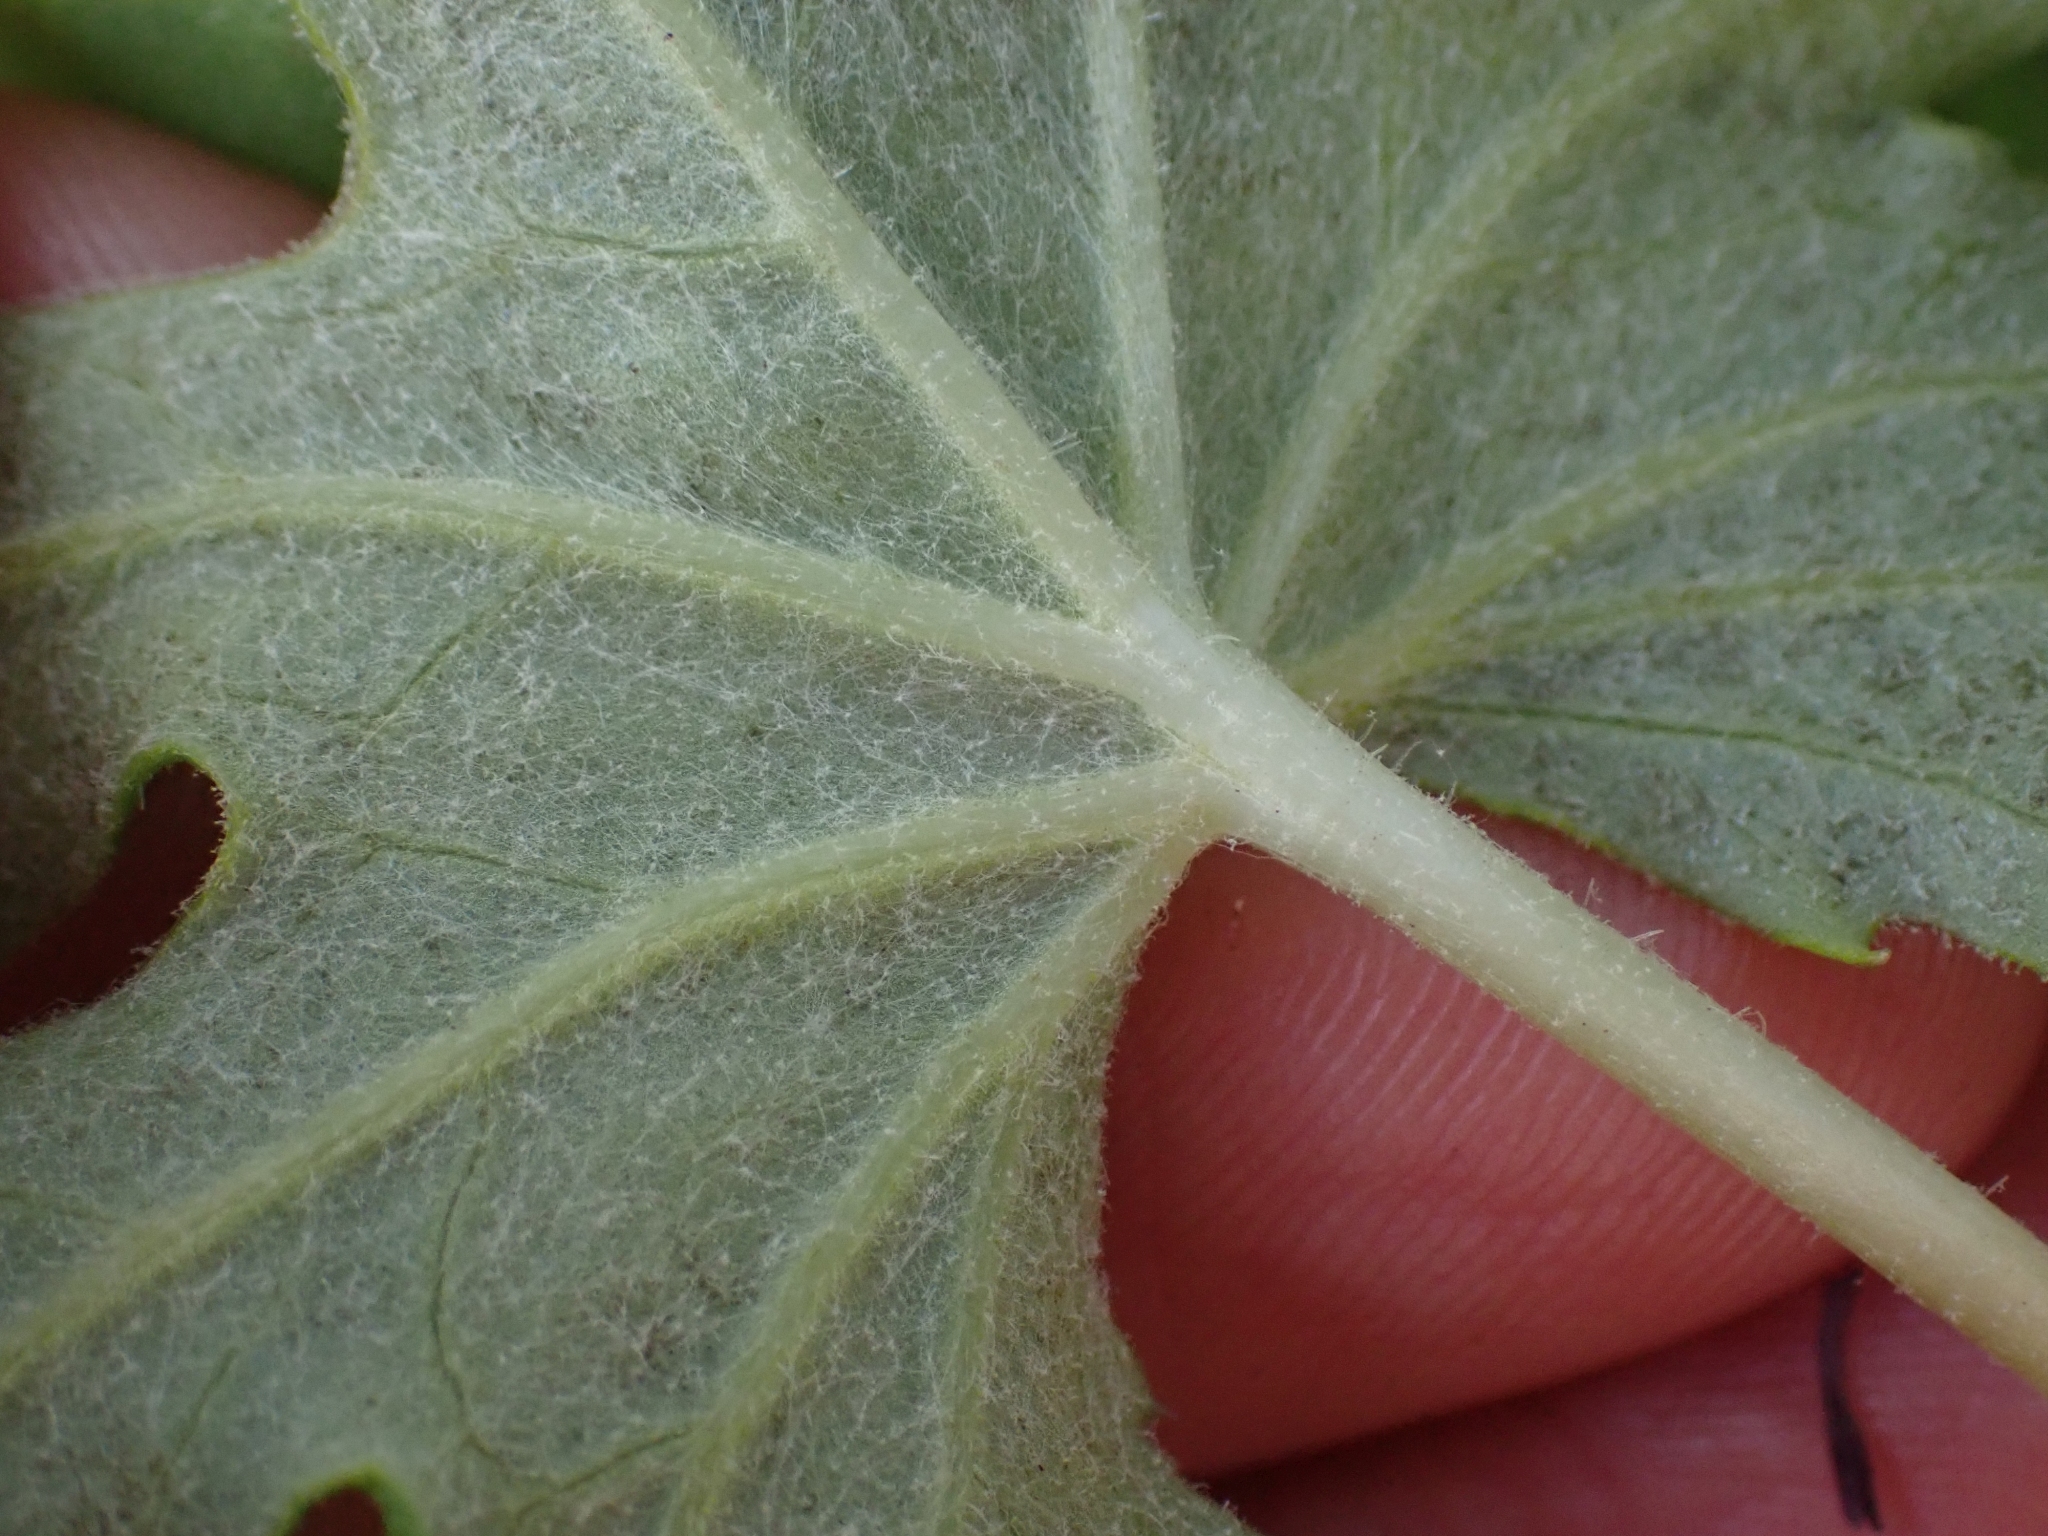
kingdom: Plantae
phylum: Tracheophyta
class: Magnoliopsida
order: Asterales
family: Asteraceae
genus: Petasites
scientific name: Petasites frigidus
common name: Arctic butterbur
